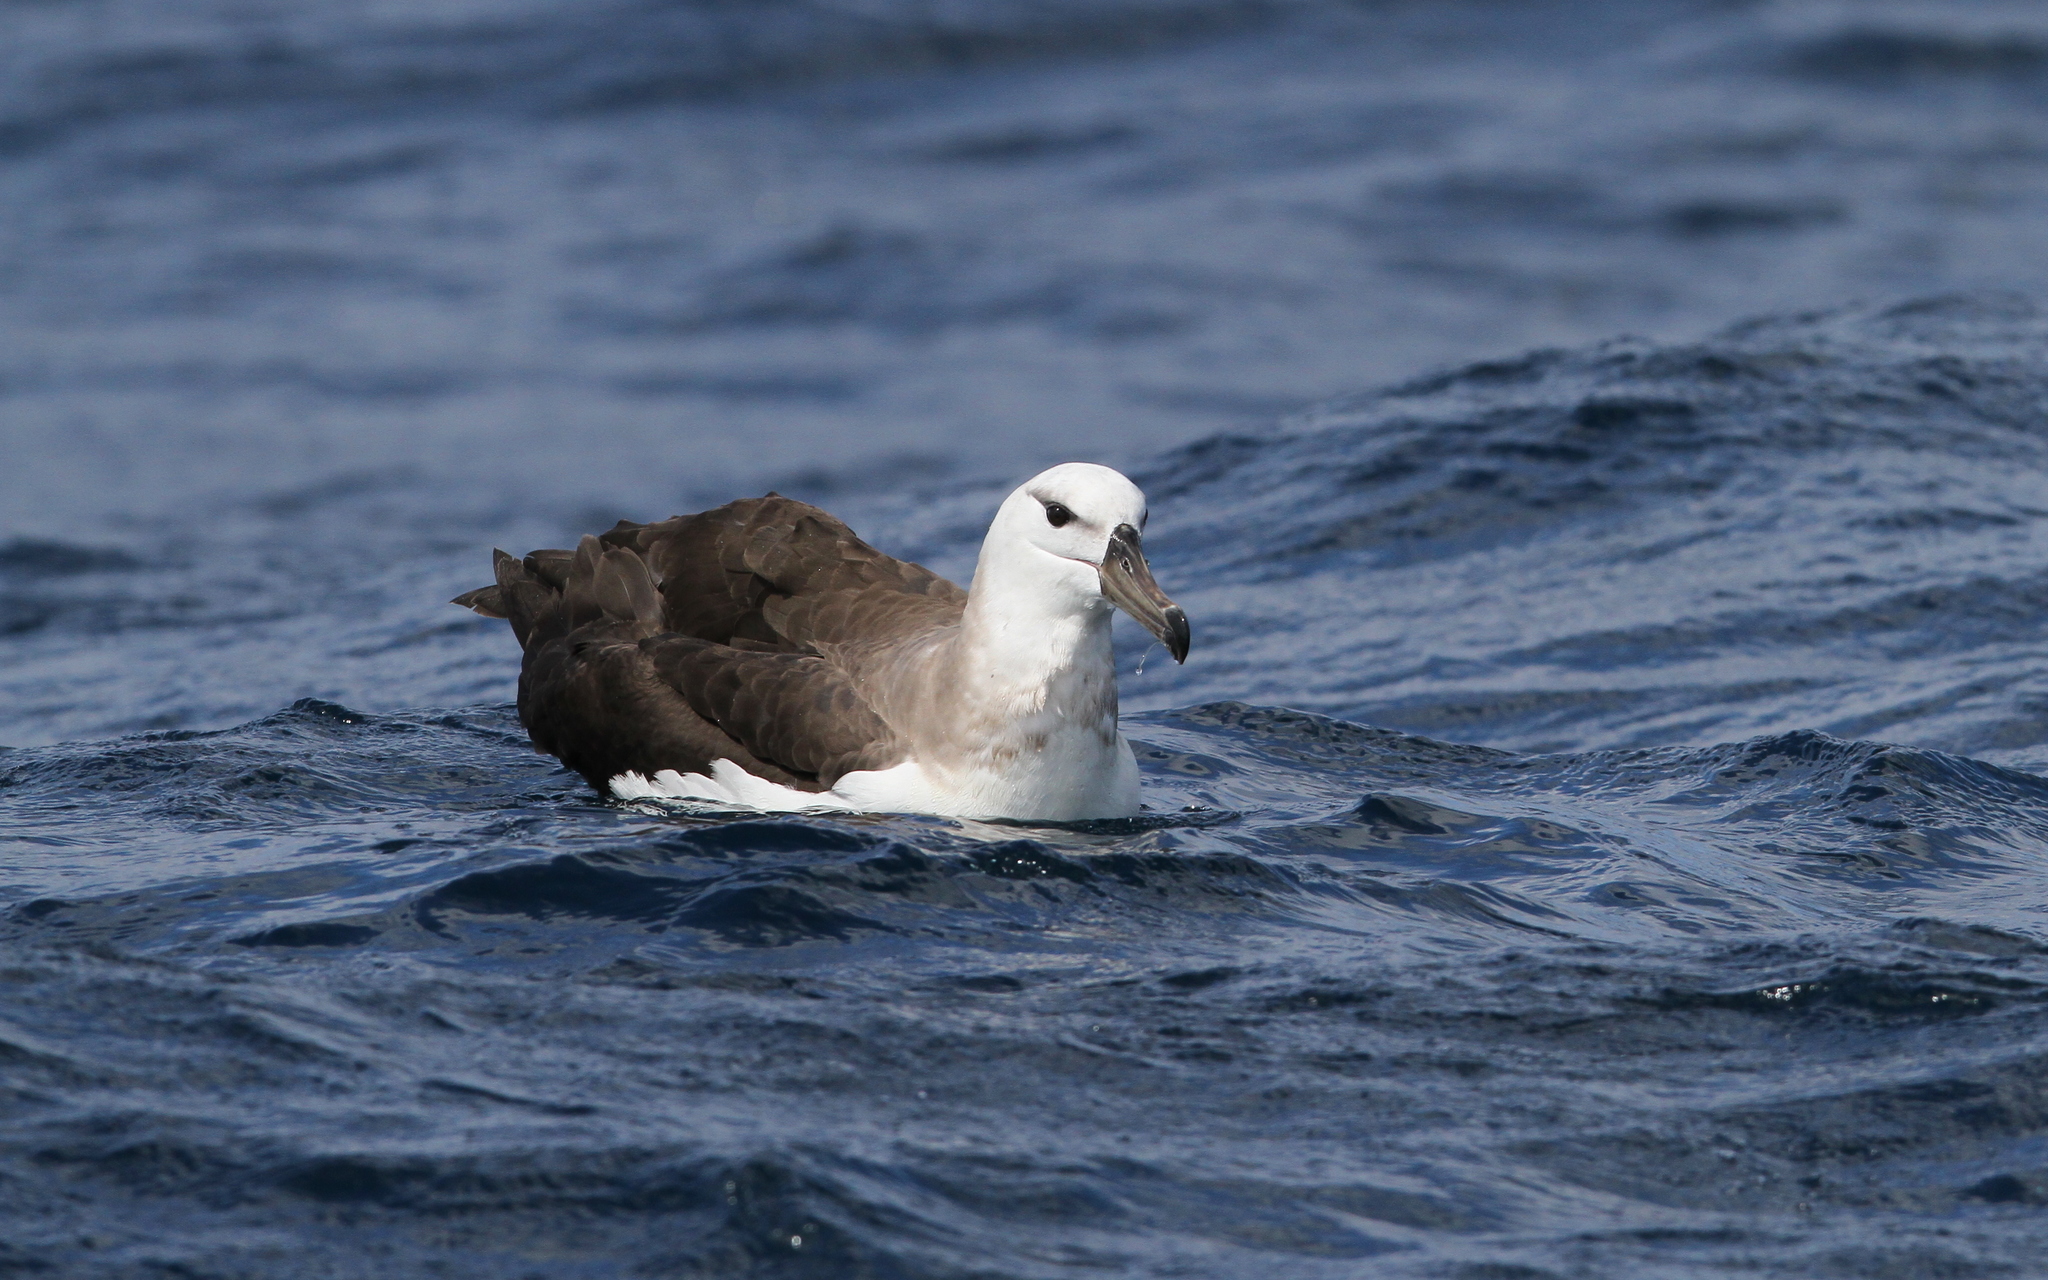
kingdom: Animalia
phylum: Chordata
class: Aves
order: Procellariiformes
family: Diomedeidae
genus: Thalassarche
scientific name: Thalassarche melanophris
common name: Black-browed albatross
